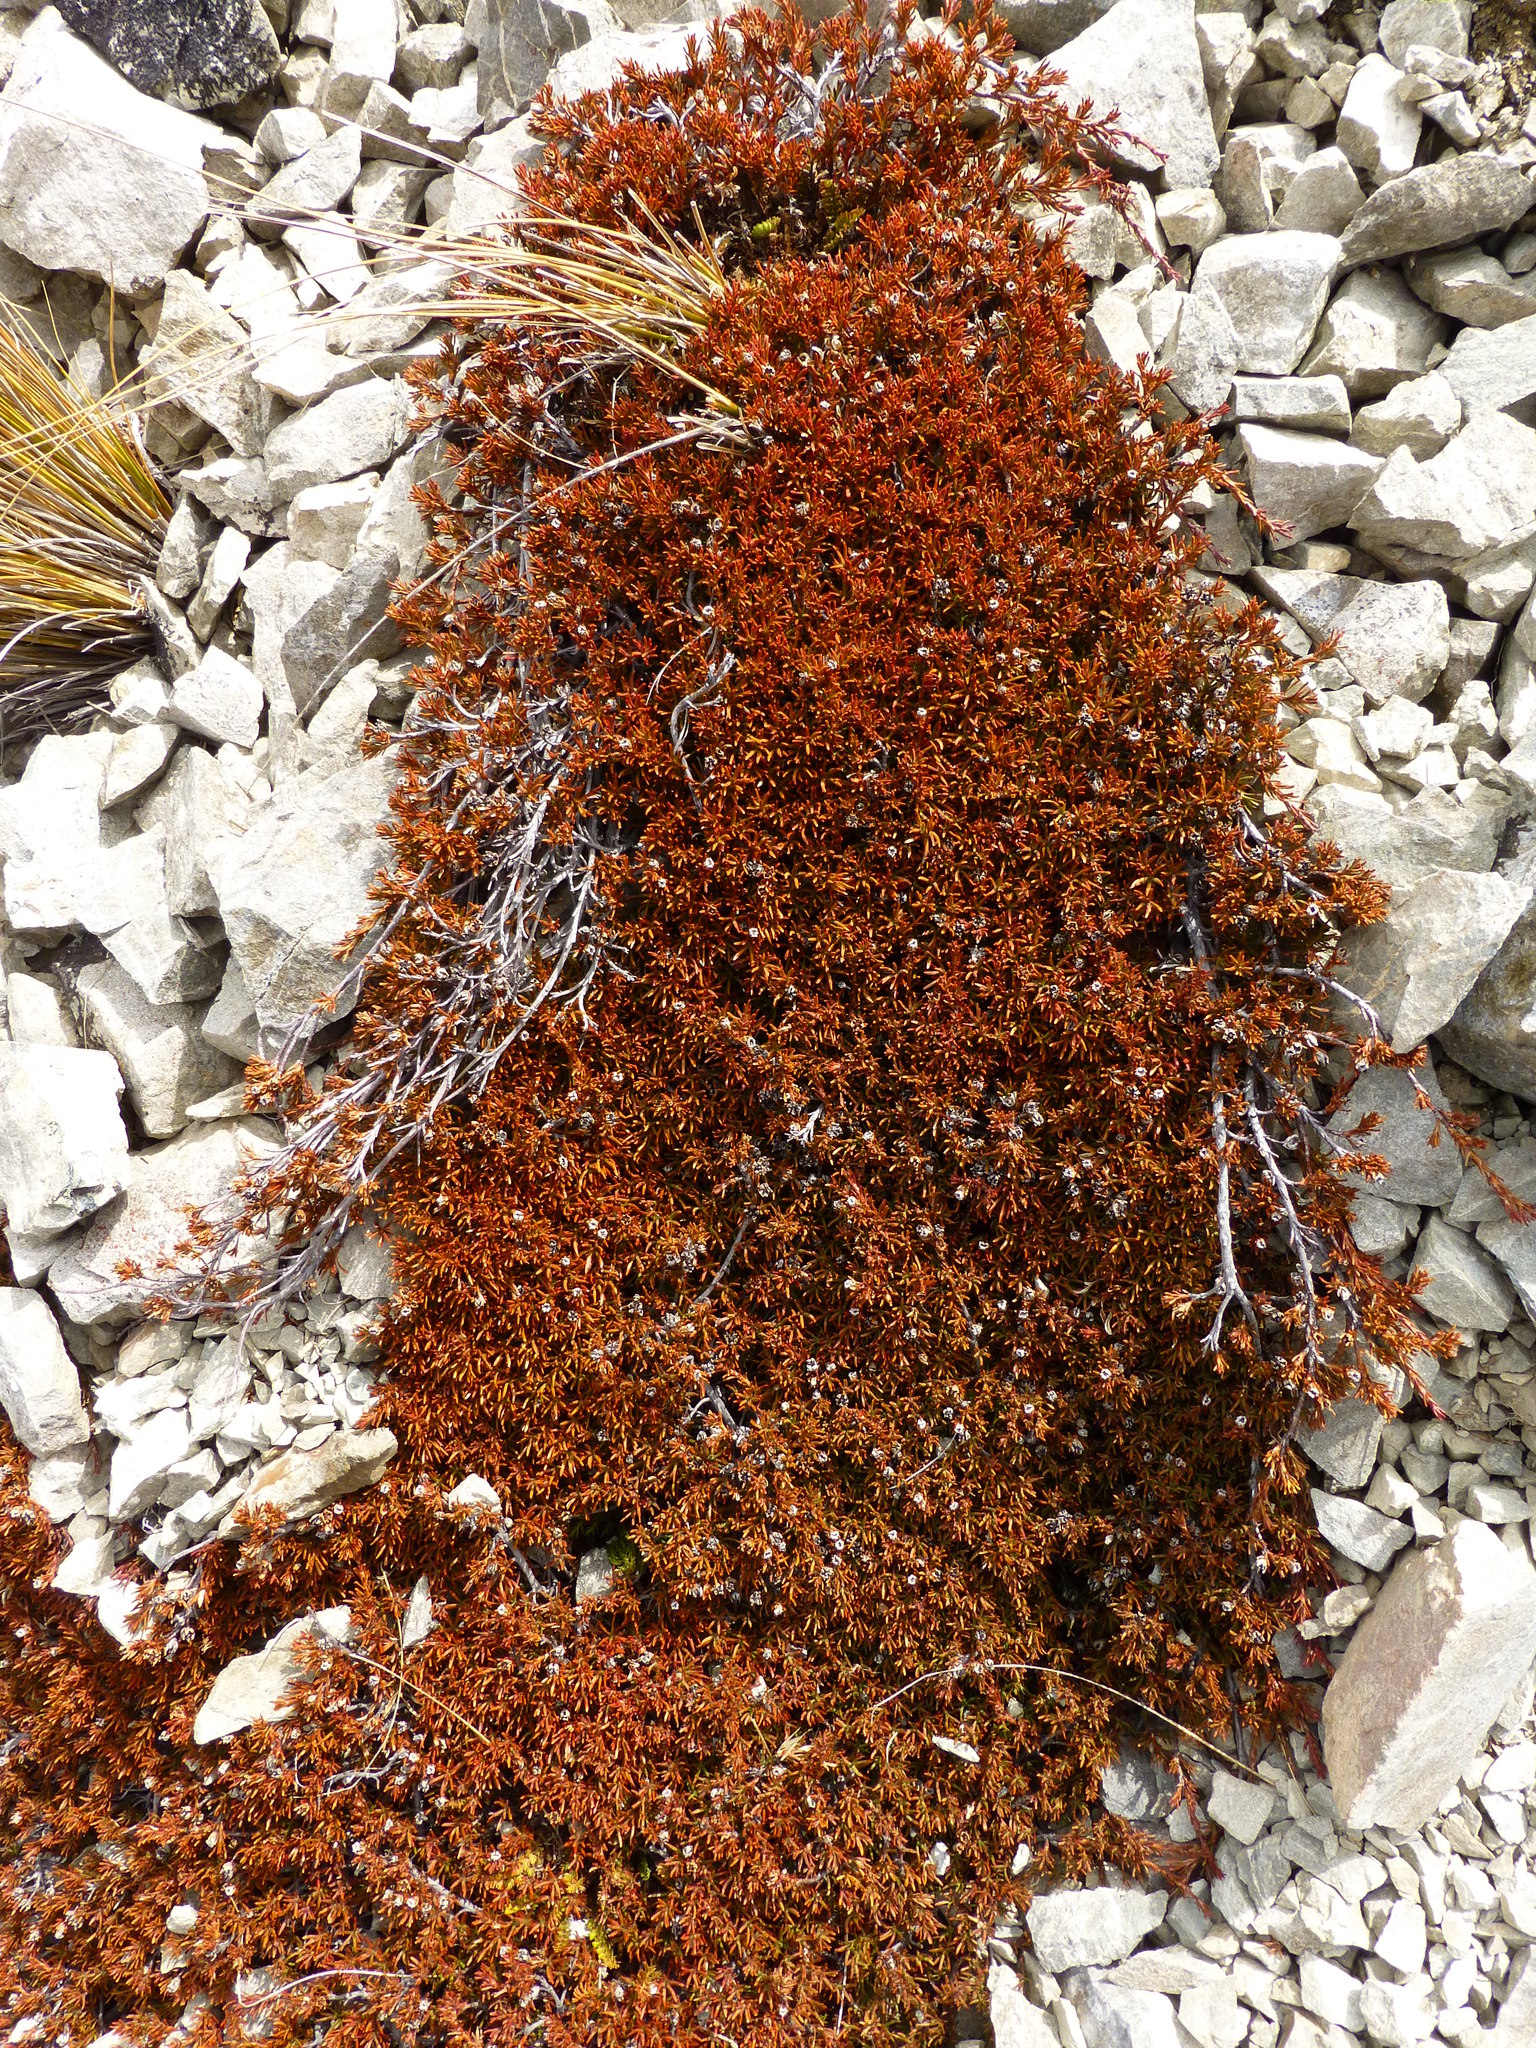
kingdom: Plantae
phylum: Tracheophyta
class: Magnoliopsida
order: Ericales
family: Ericaceae
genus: Dracophyllum
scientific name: Dracophyllum pronum
